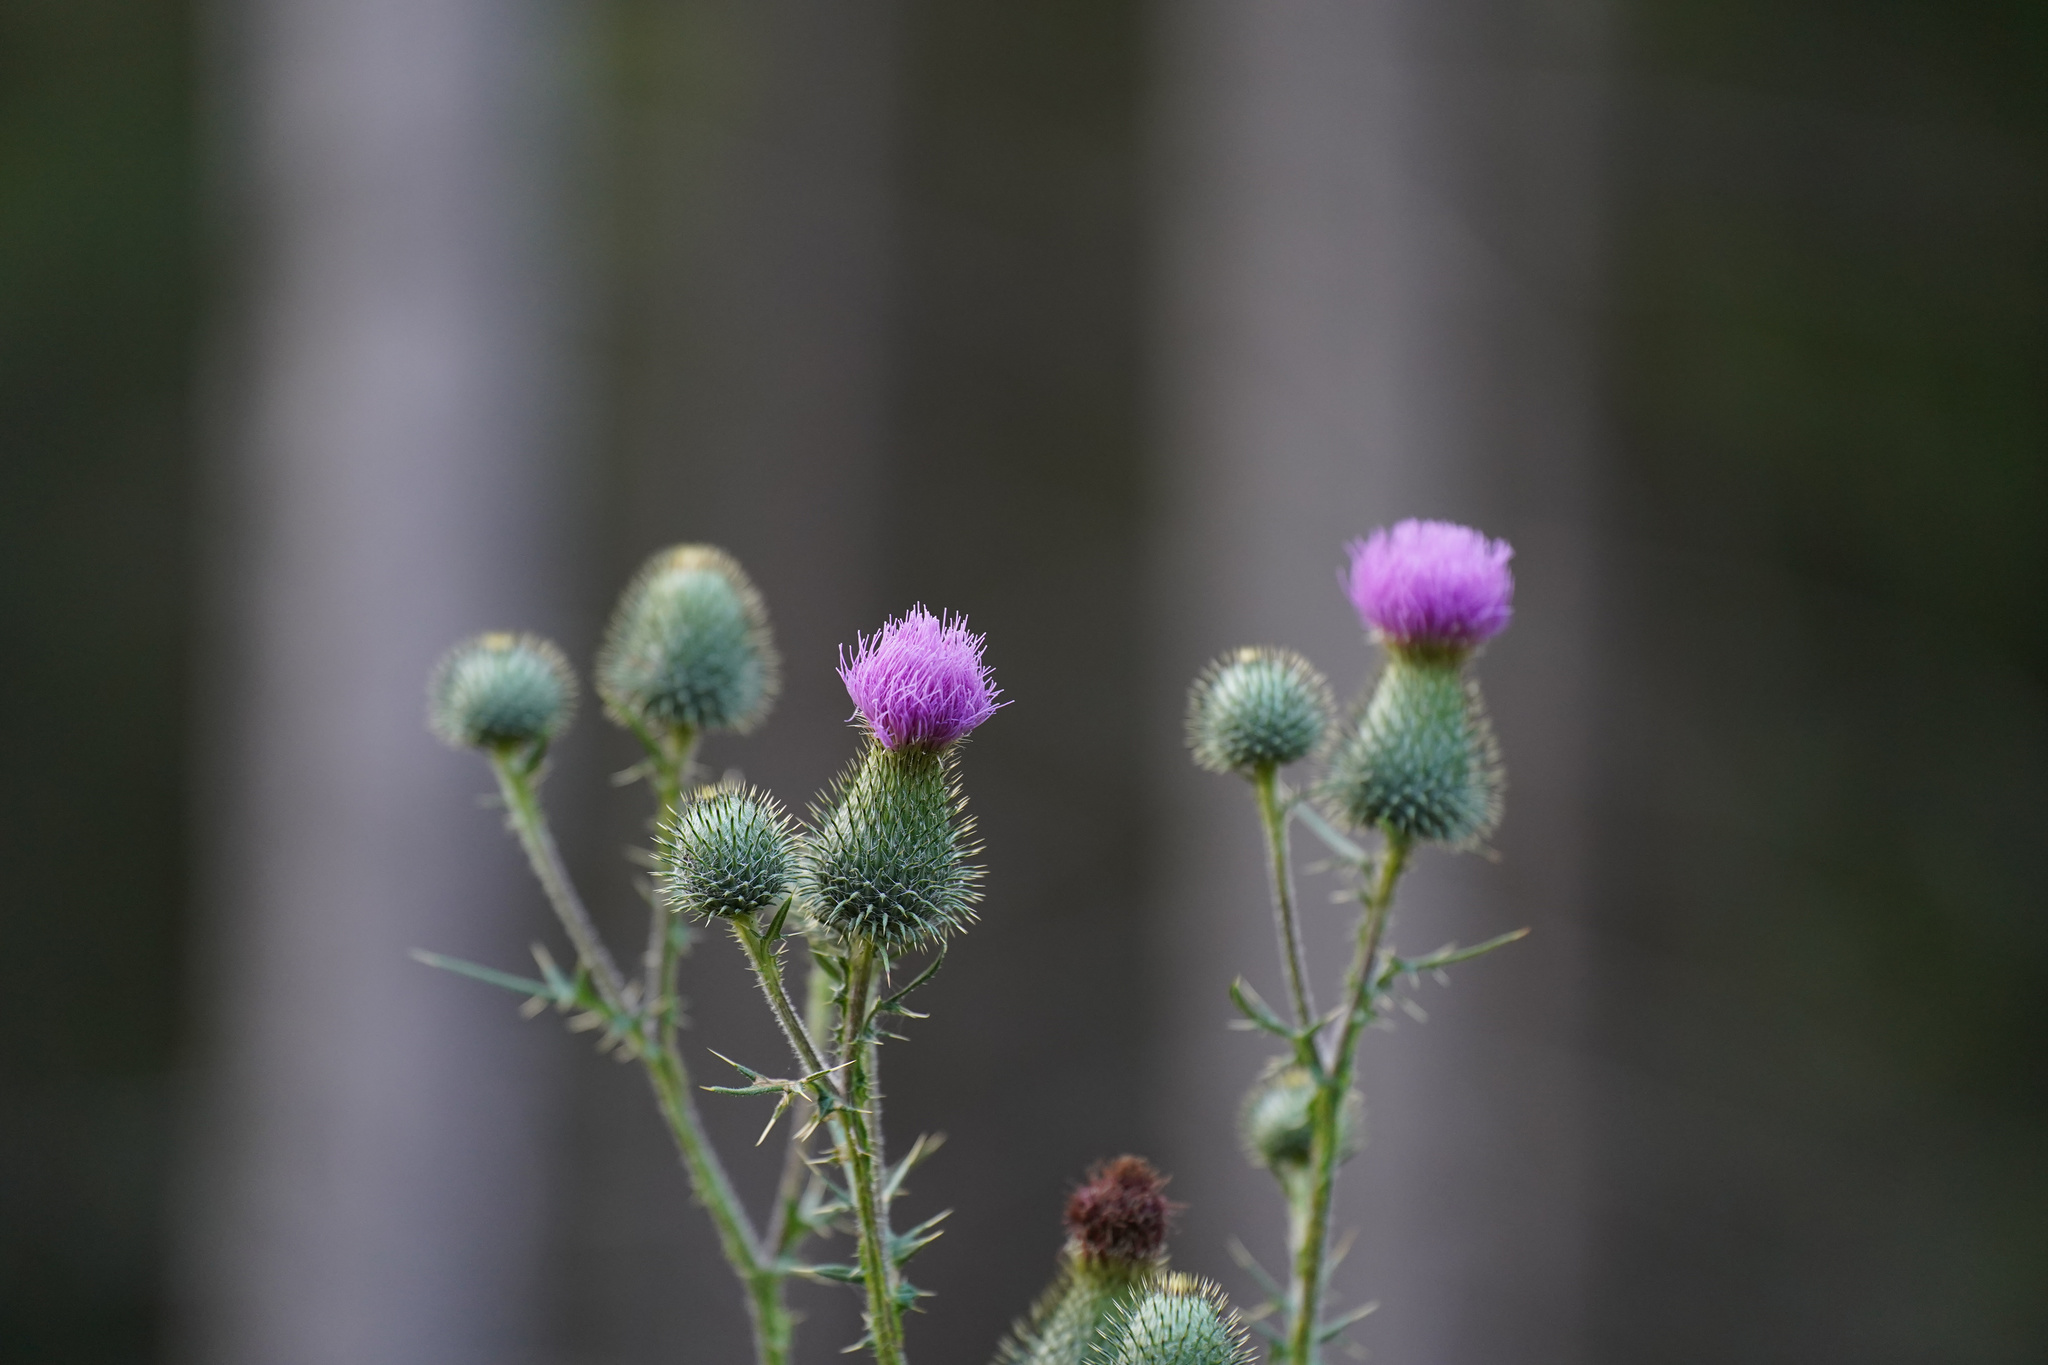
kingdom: Plantae
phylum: Tracheophyta
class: Magnoliopsida
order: Asterales
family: Asteraceae
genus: Cirsium
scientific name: Cirsium vulgare
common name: Bull thistle
